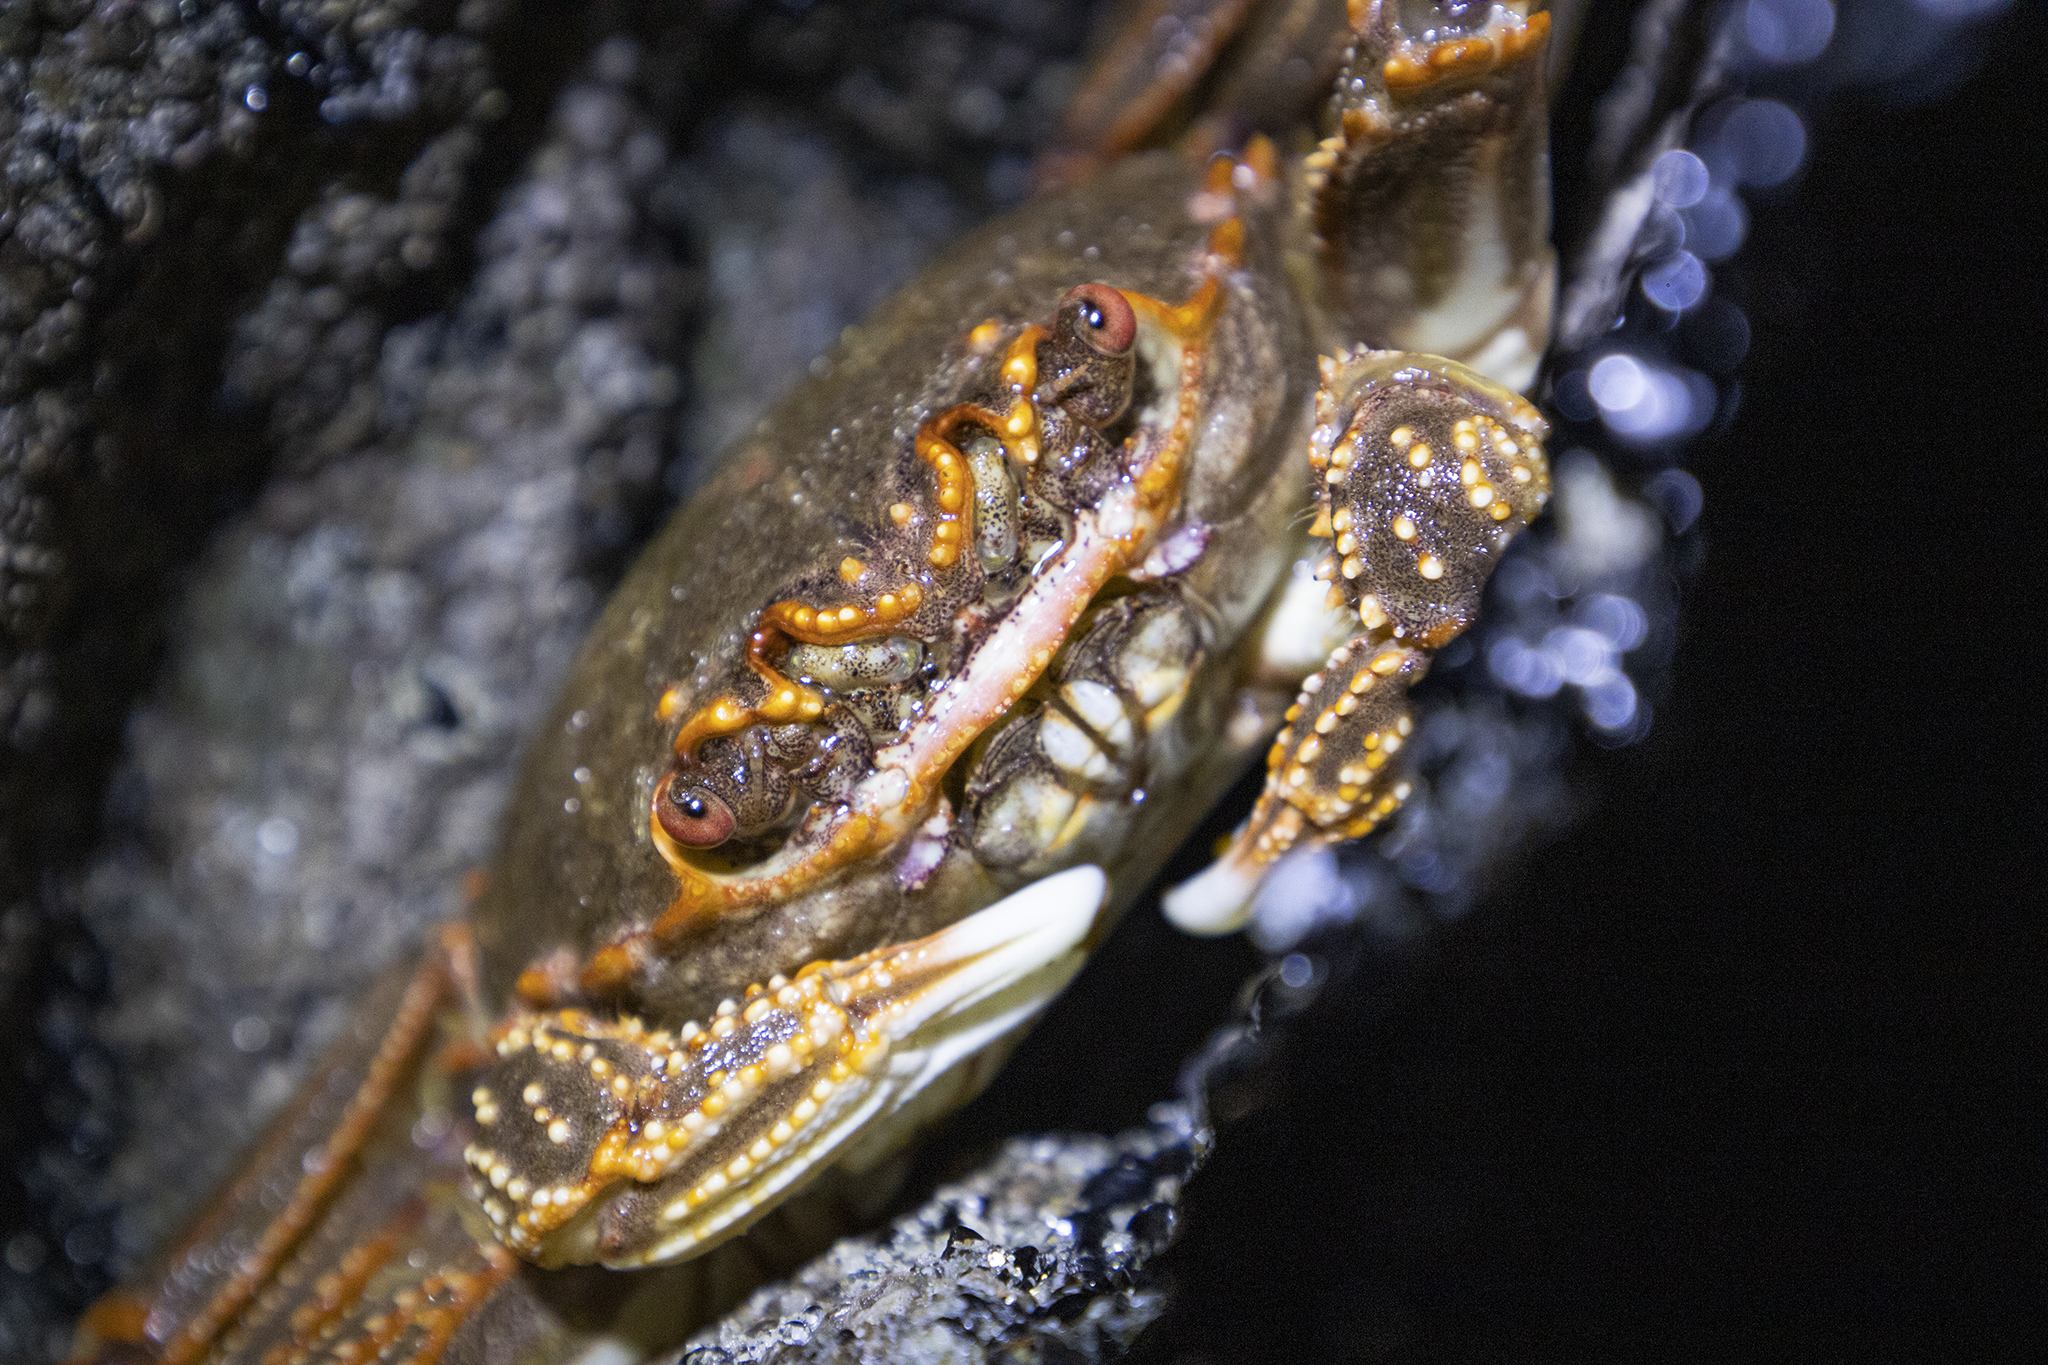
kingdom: Animalia
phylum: Arthropoda
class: Malacostraca
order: Decapoda
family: Plagusiidae
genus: Guinusia
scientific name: Guinusia chabrus
